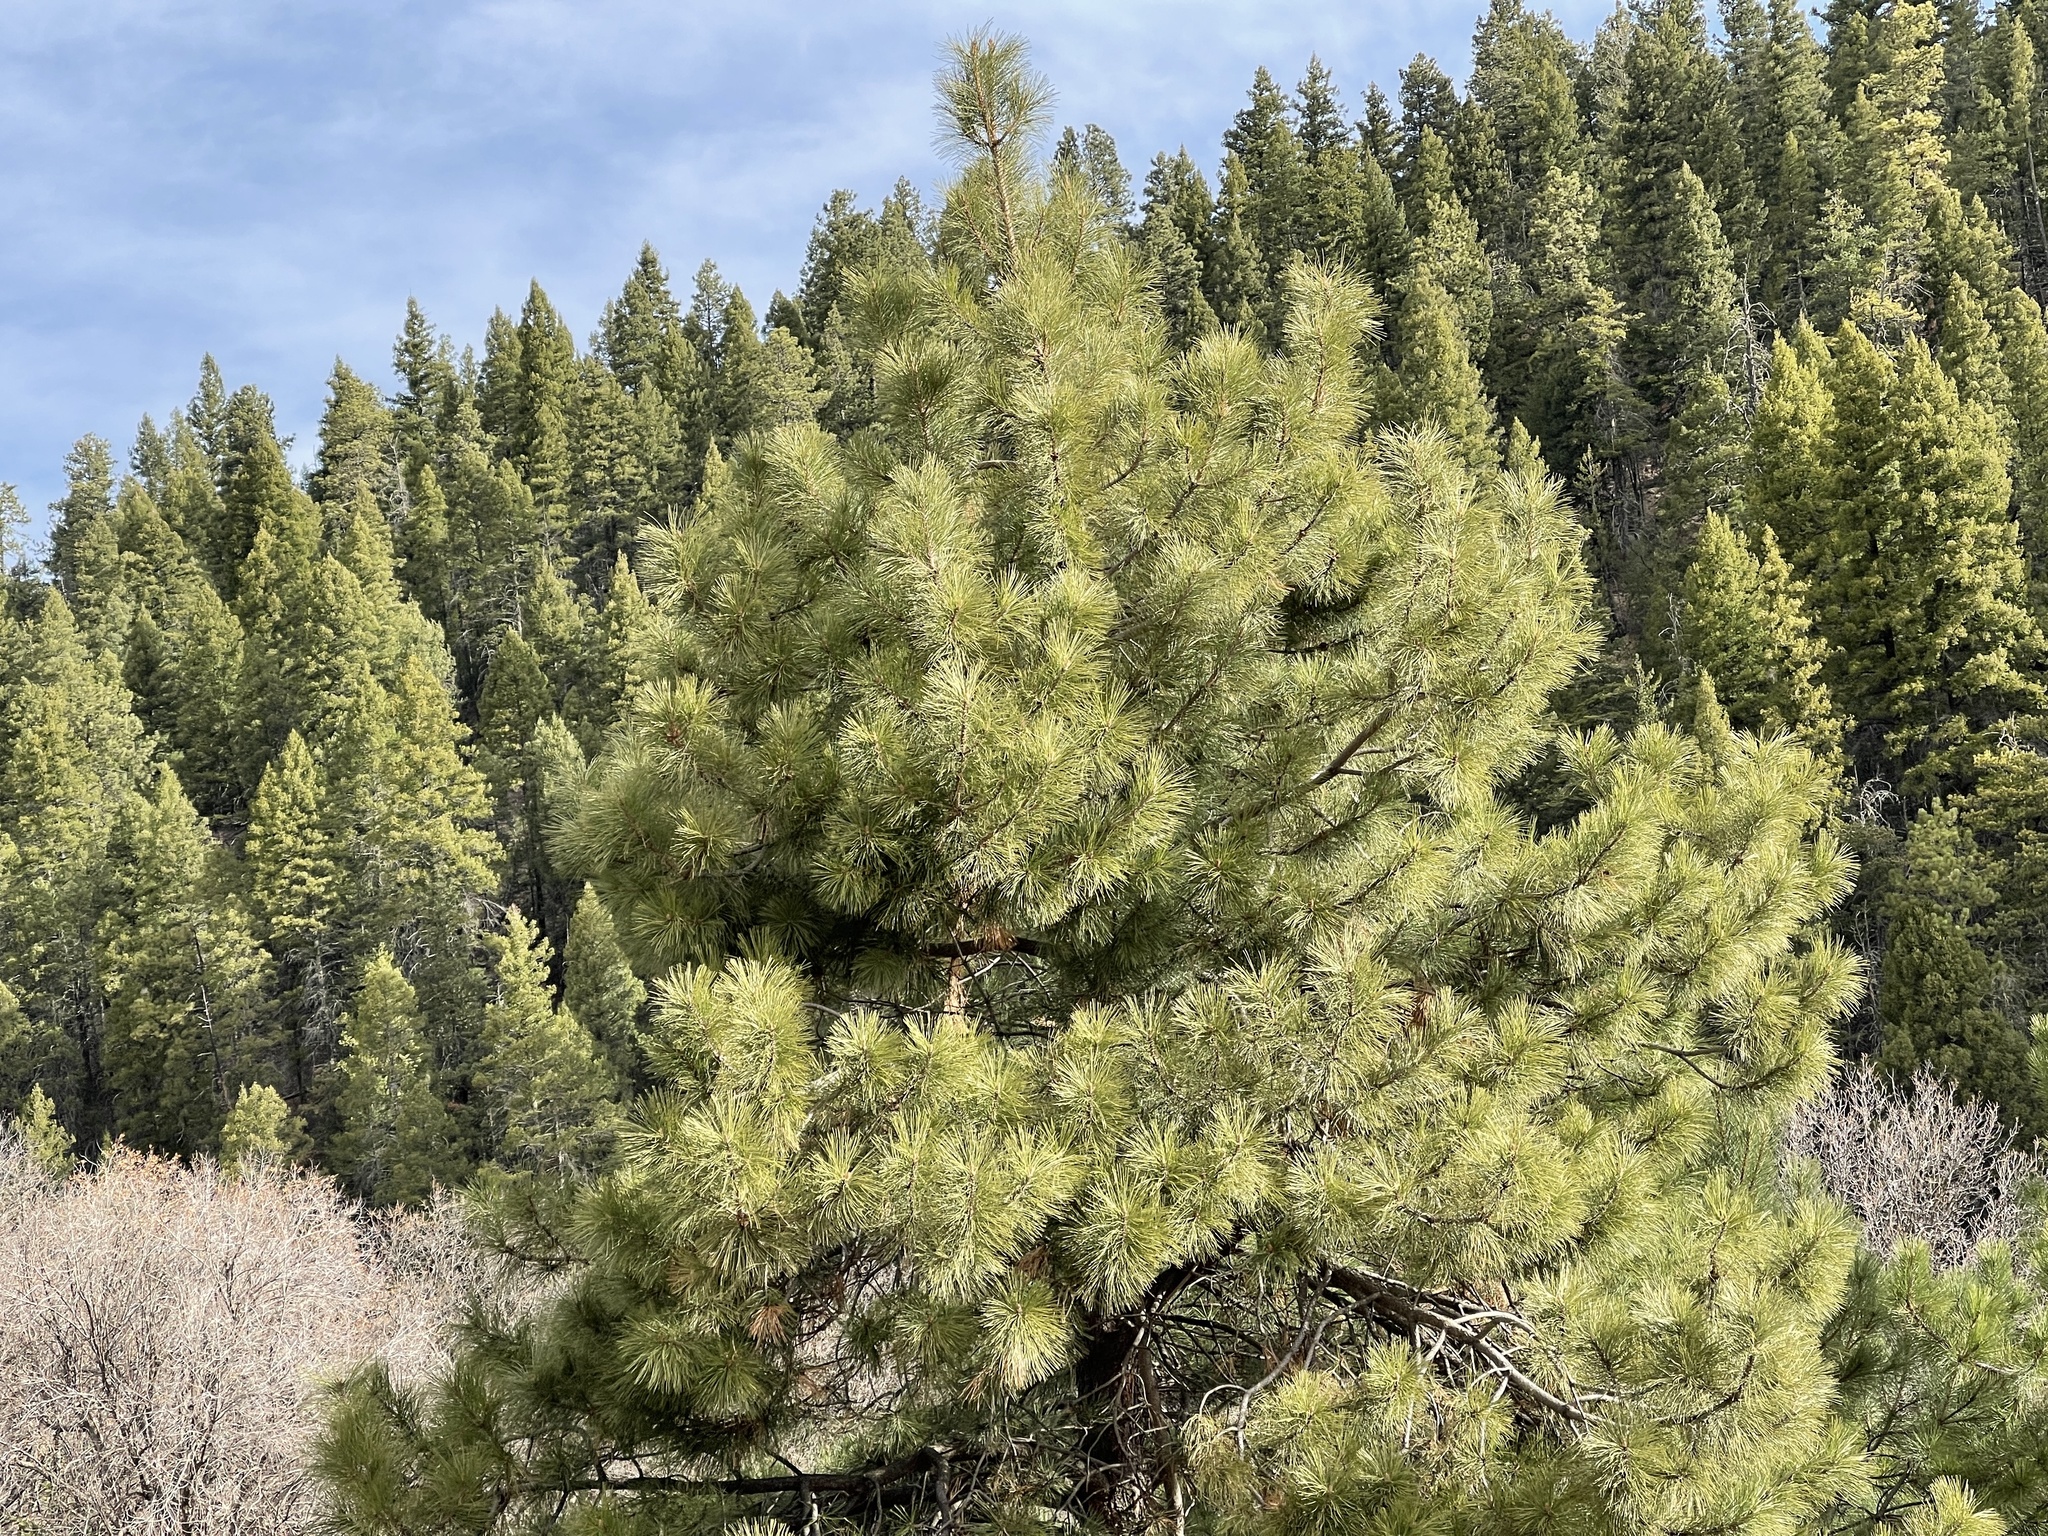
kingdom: Plantae
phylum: Tracheophyta
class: Pinopsida
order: Pinales
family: Pinaceae
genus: Pinus
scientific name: Pinus ponderosa
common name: Western yellow-pine
